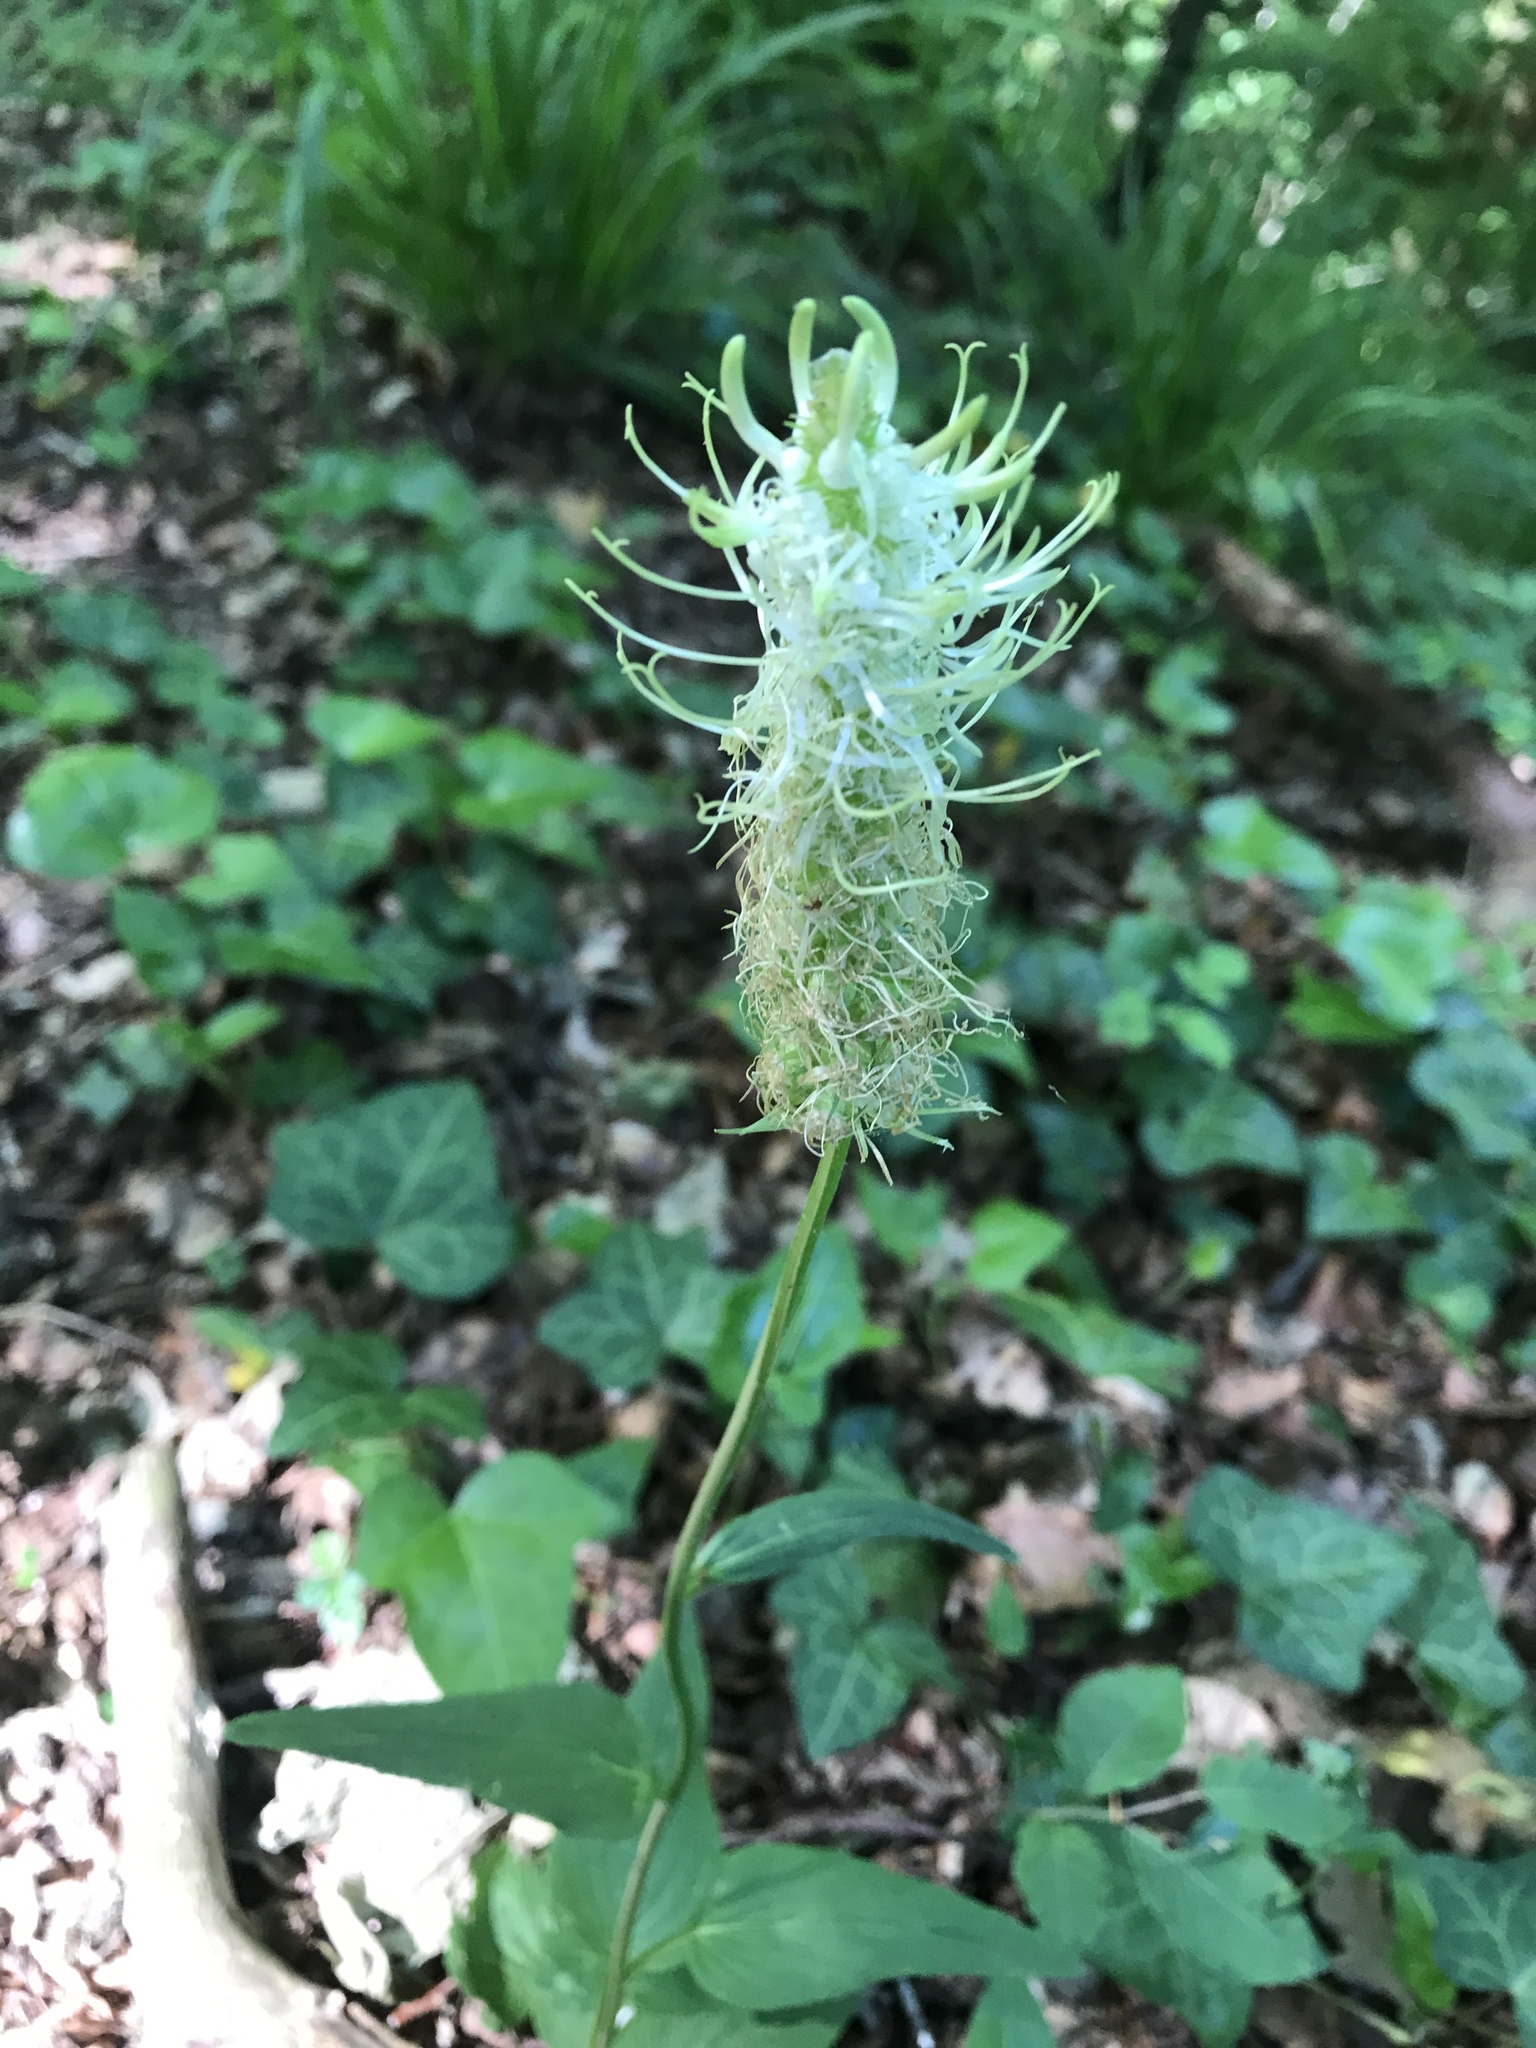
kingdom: Plantae
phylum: Tracheophyta
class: Magnoliopsida
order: Asterales
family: Campanulaceae
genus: Phyteuma
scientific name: Phyteuma spicatum
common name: Spiked rampion
